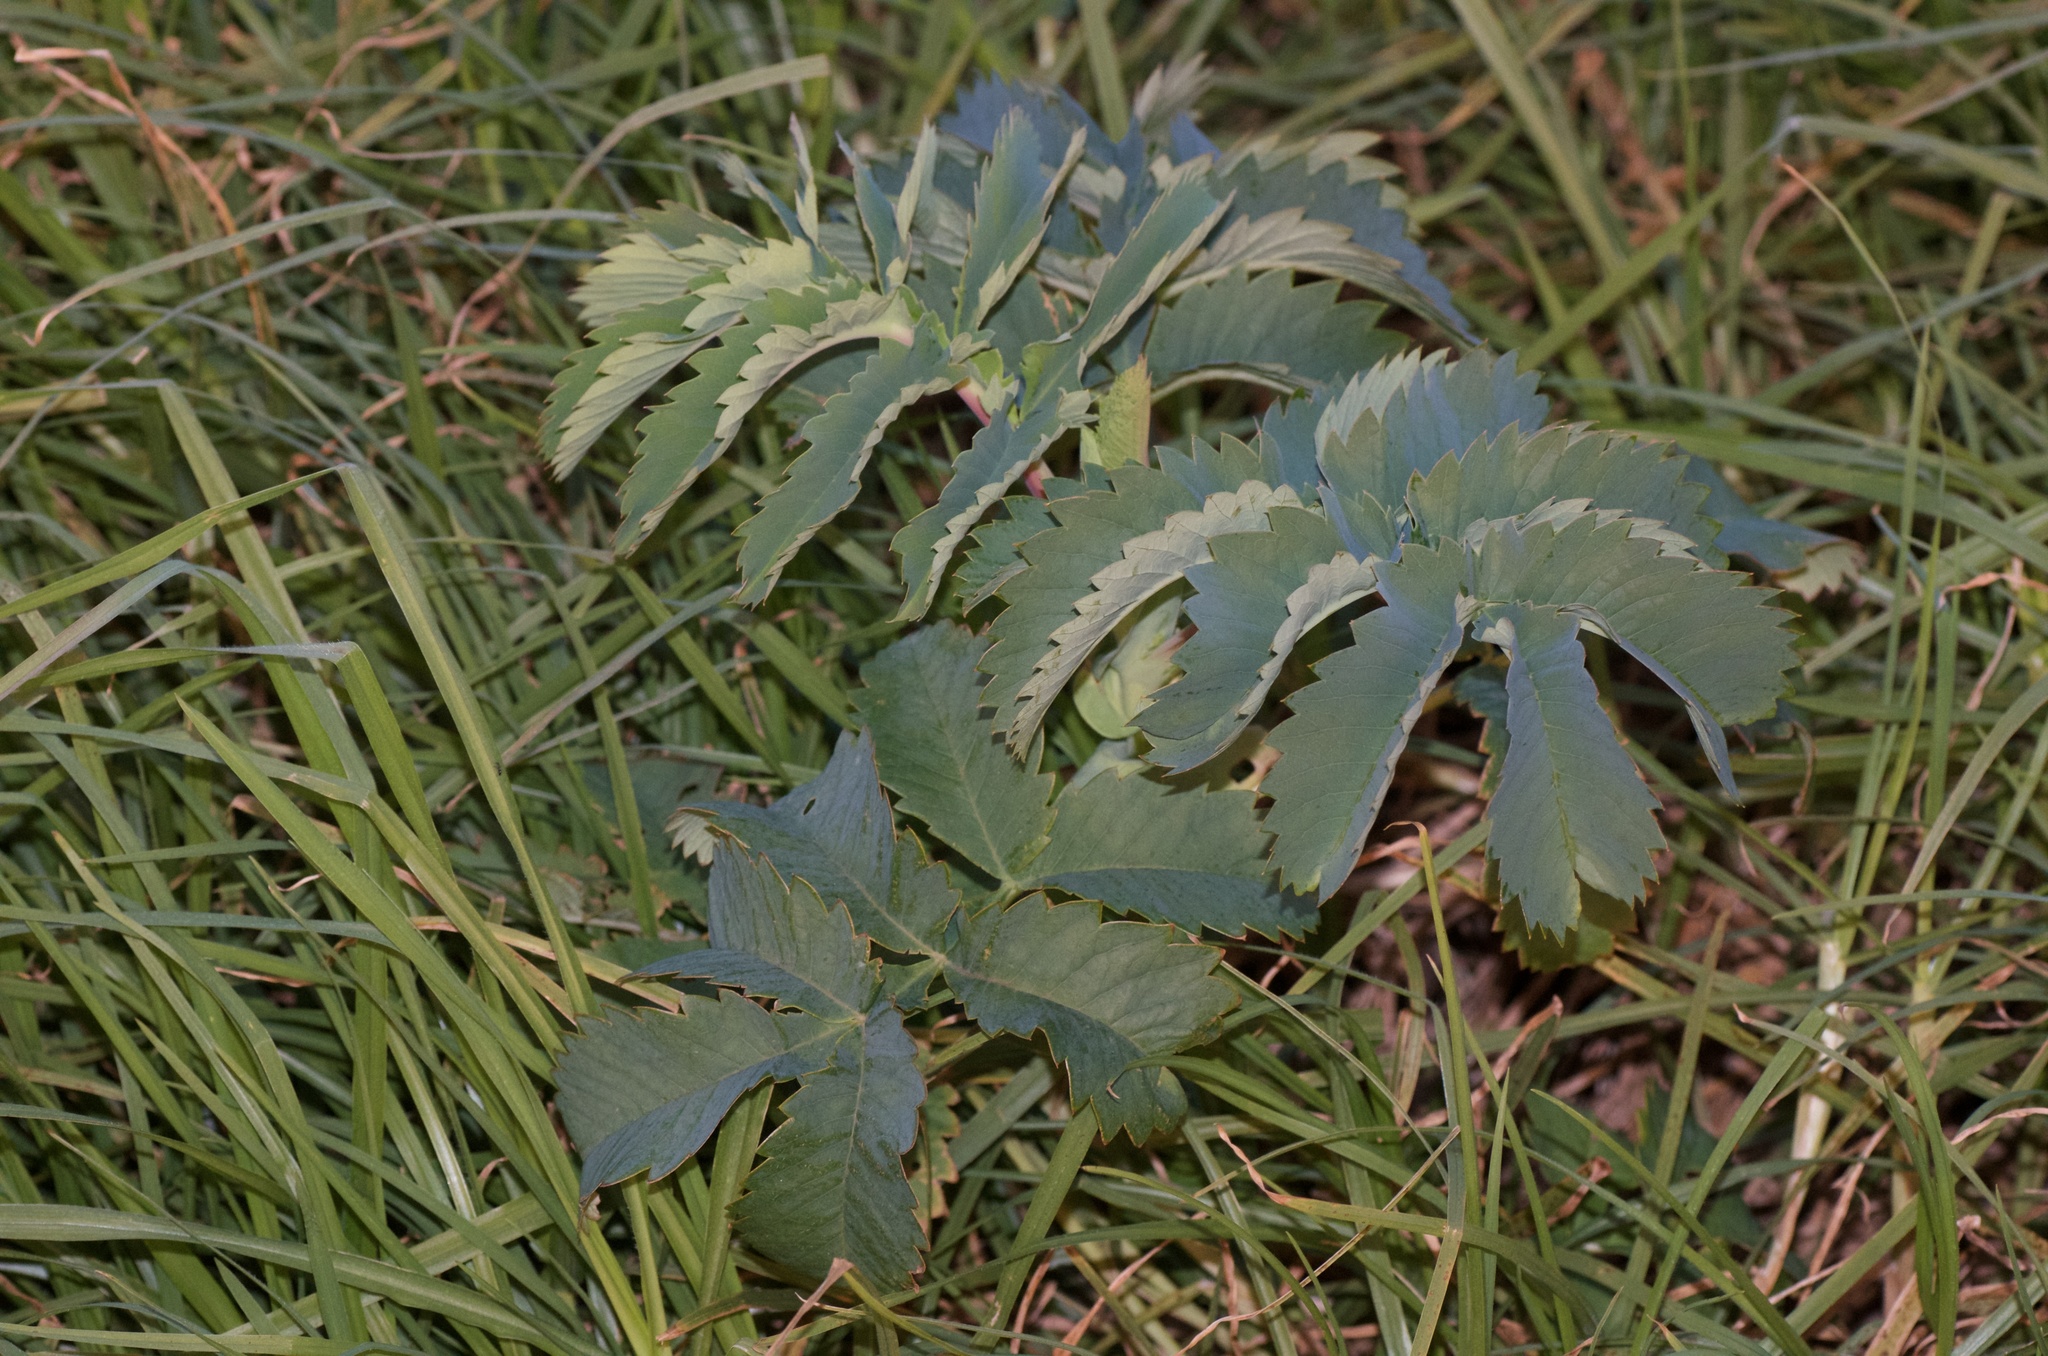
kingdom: Plantae
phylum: Tracheophyta
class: Magnoliopsida
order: Geraniales
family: Melianthaceae
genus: Melianthus
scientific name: Melianthus major
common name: Honey-flower
